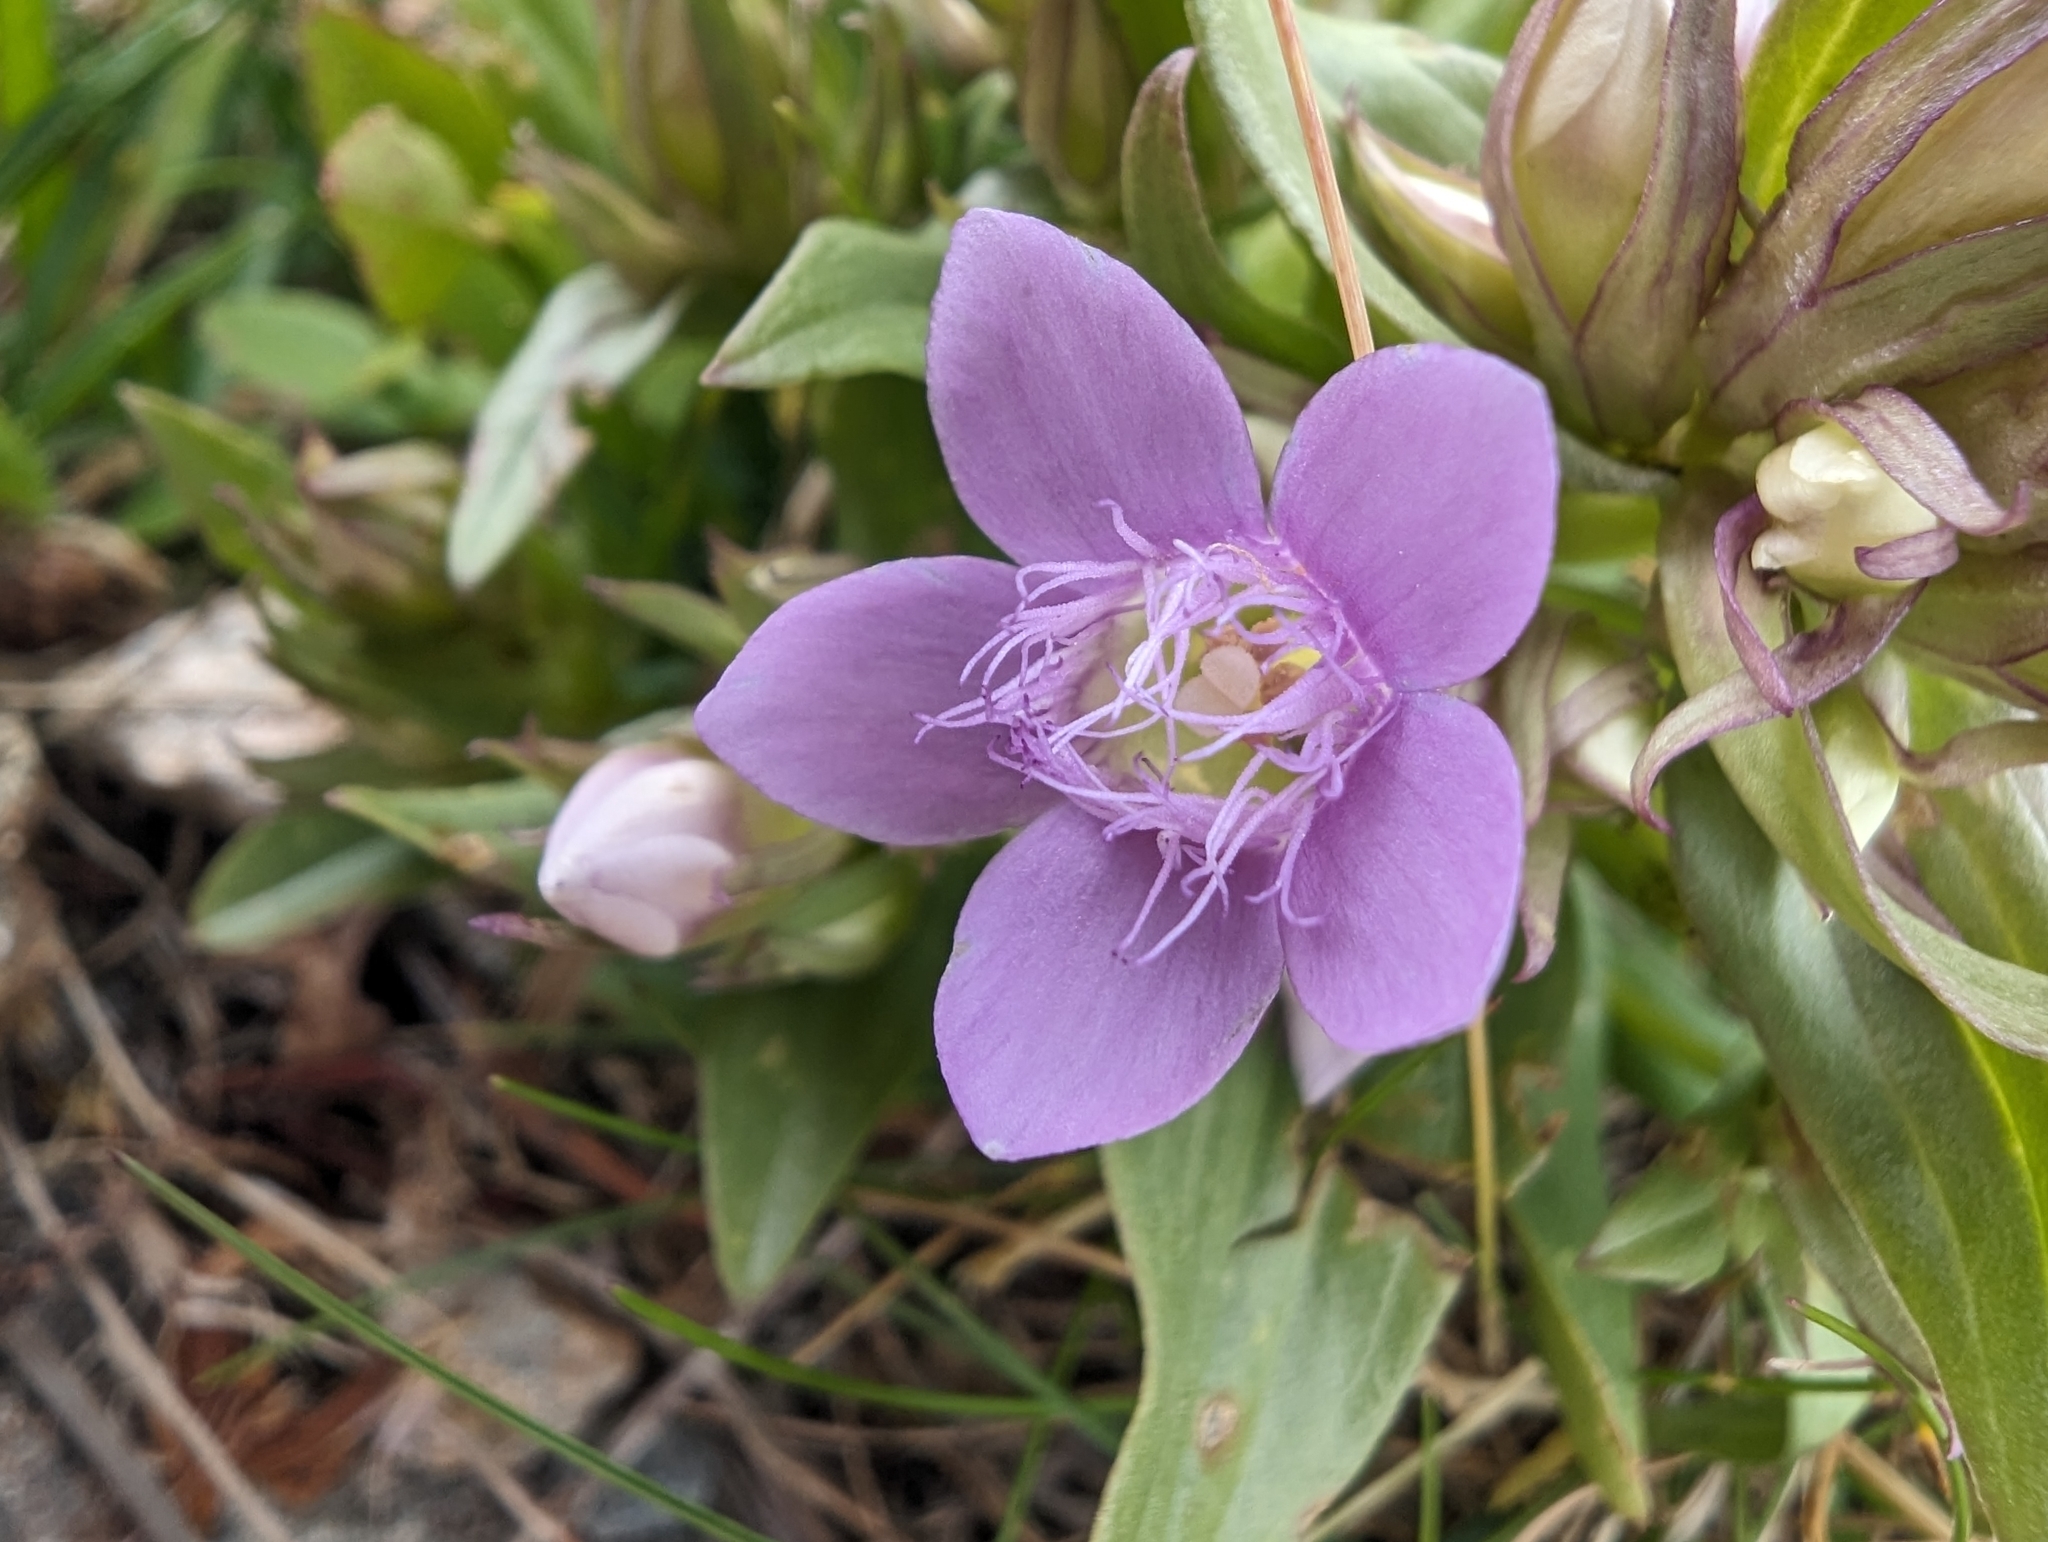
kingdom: Plantae
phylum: Tracheophyta
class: Magnoliopsida
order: Gentianales
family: Gentianaceae
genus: Gentianella
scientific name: Gentianella ramosa
